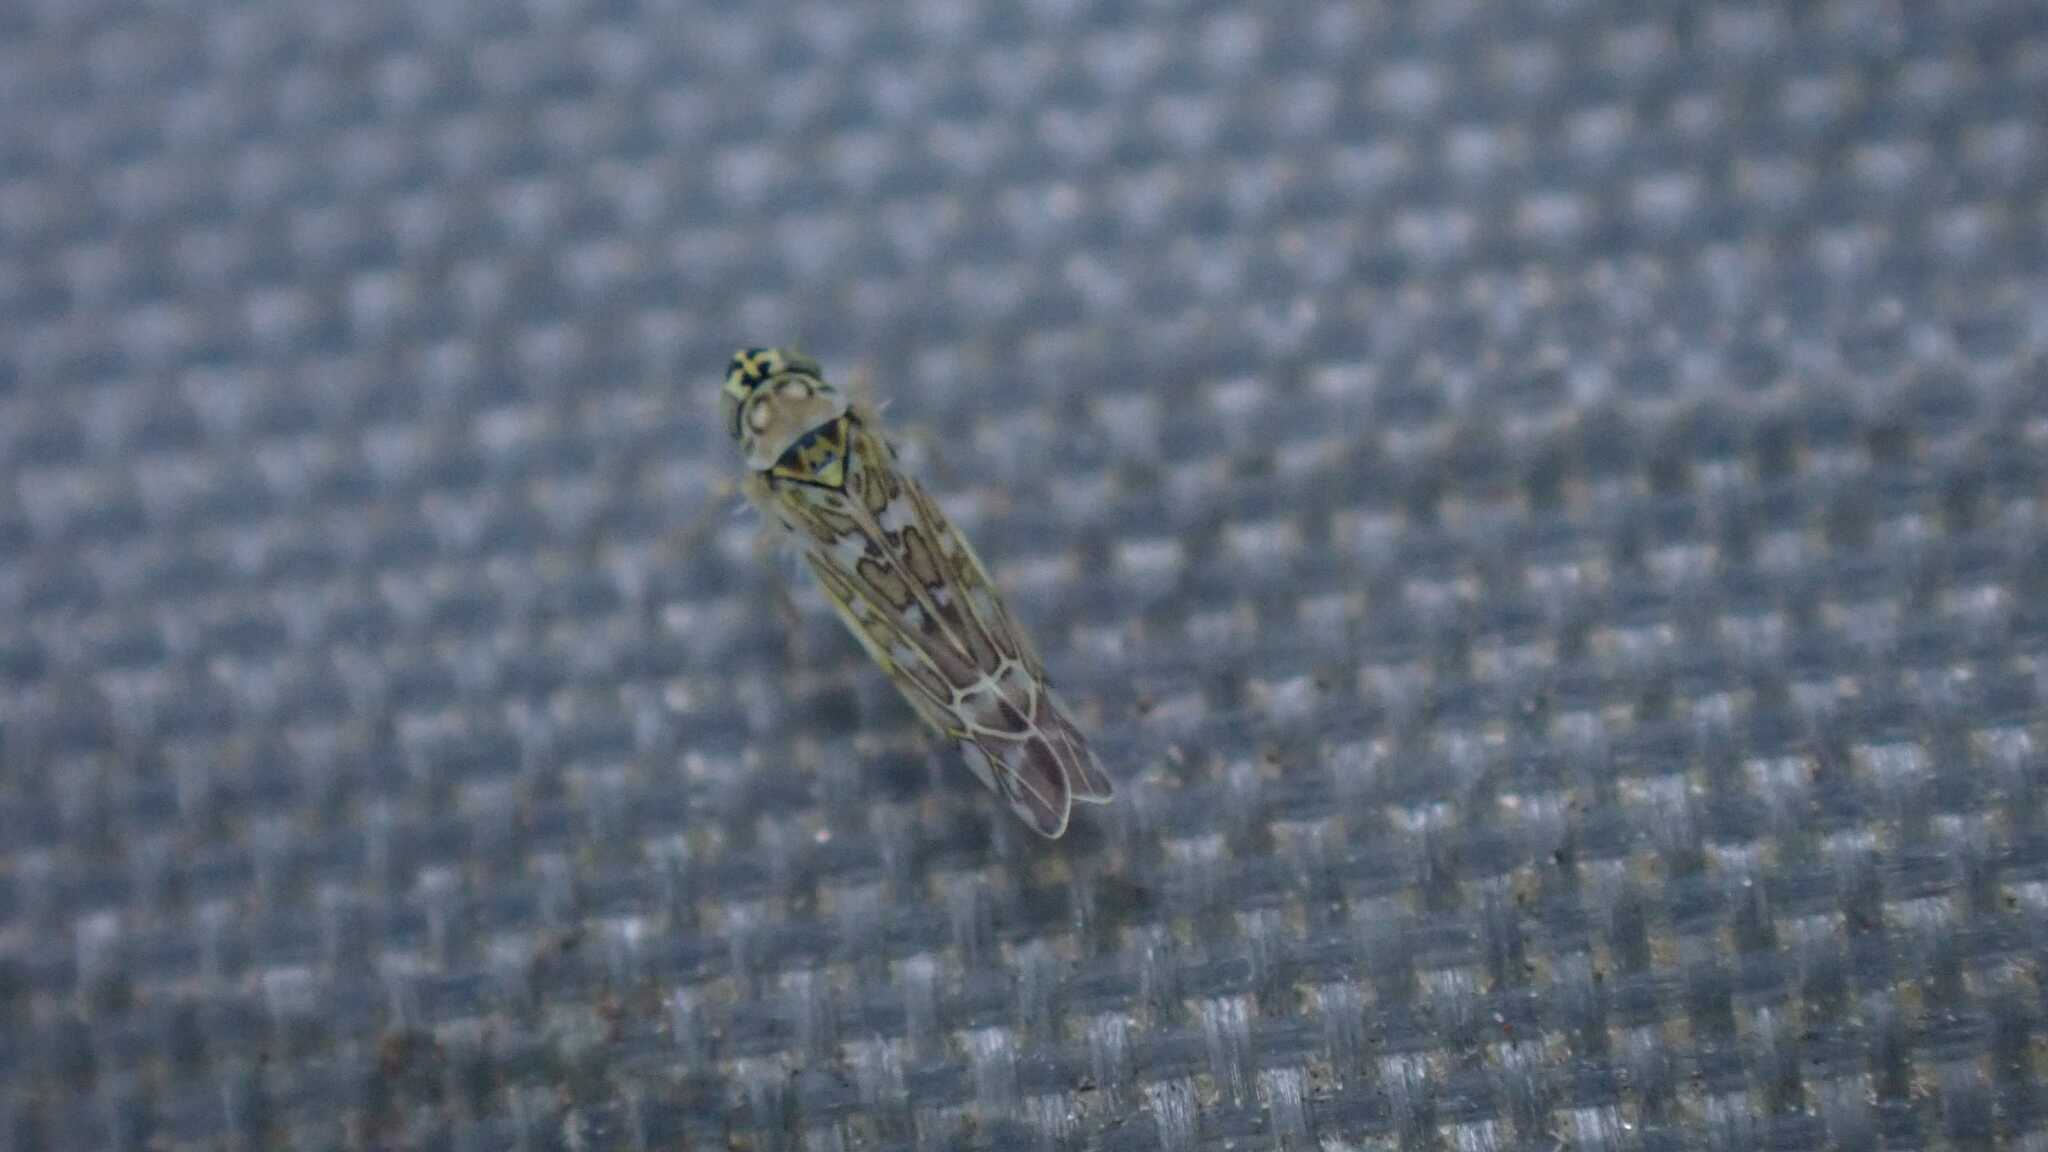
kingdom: Animalia
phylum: Arthropoda
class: Insecta
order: Hemiptera
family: Cicadellidae
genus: Eupteryx
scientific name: Eupteryx decemnotata
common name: Ligurian leafhopper
